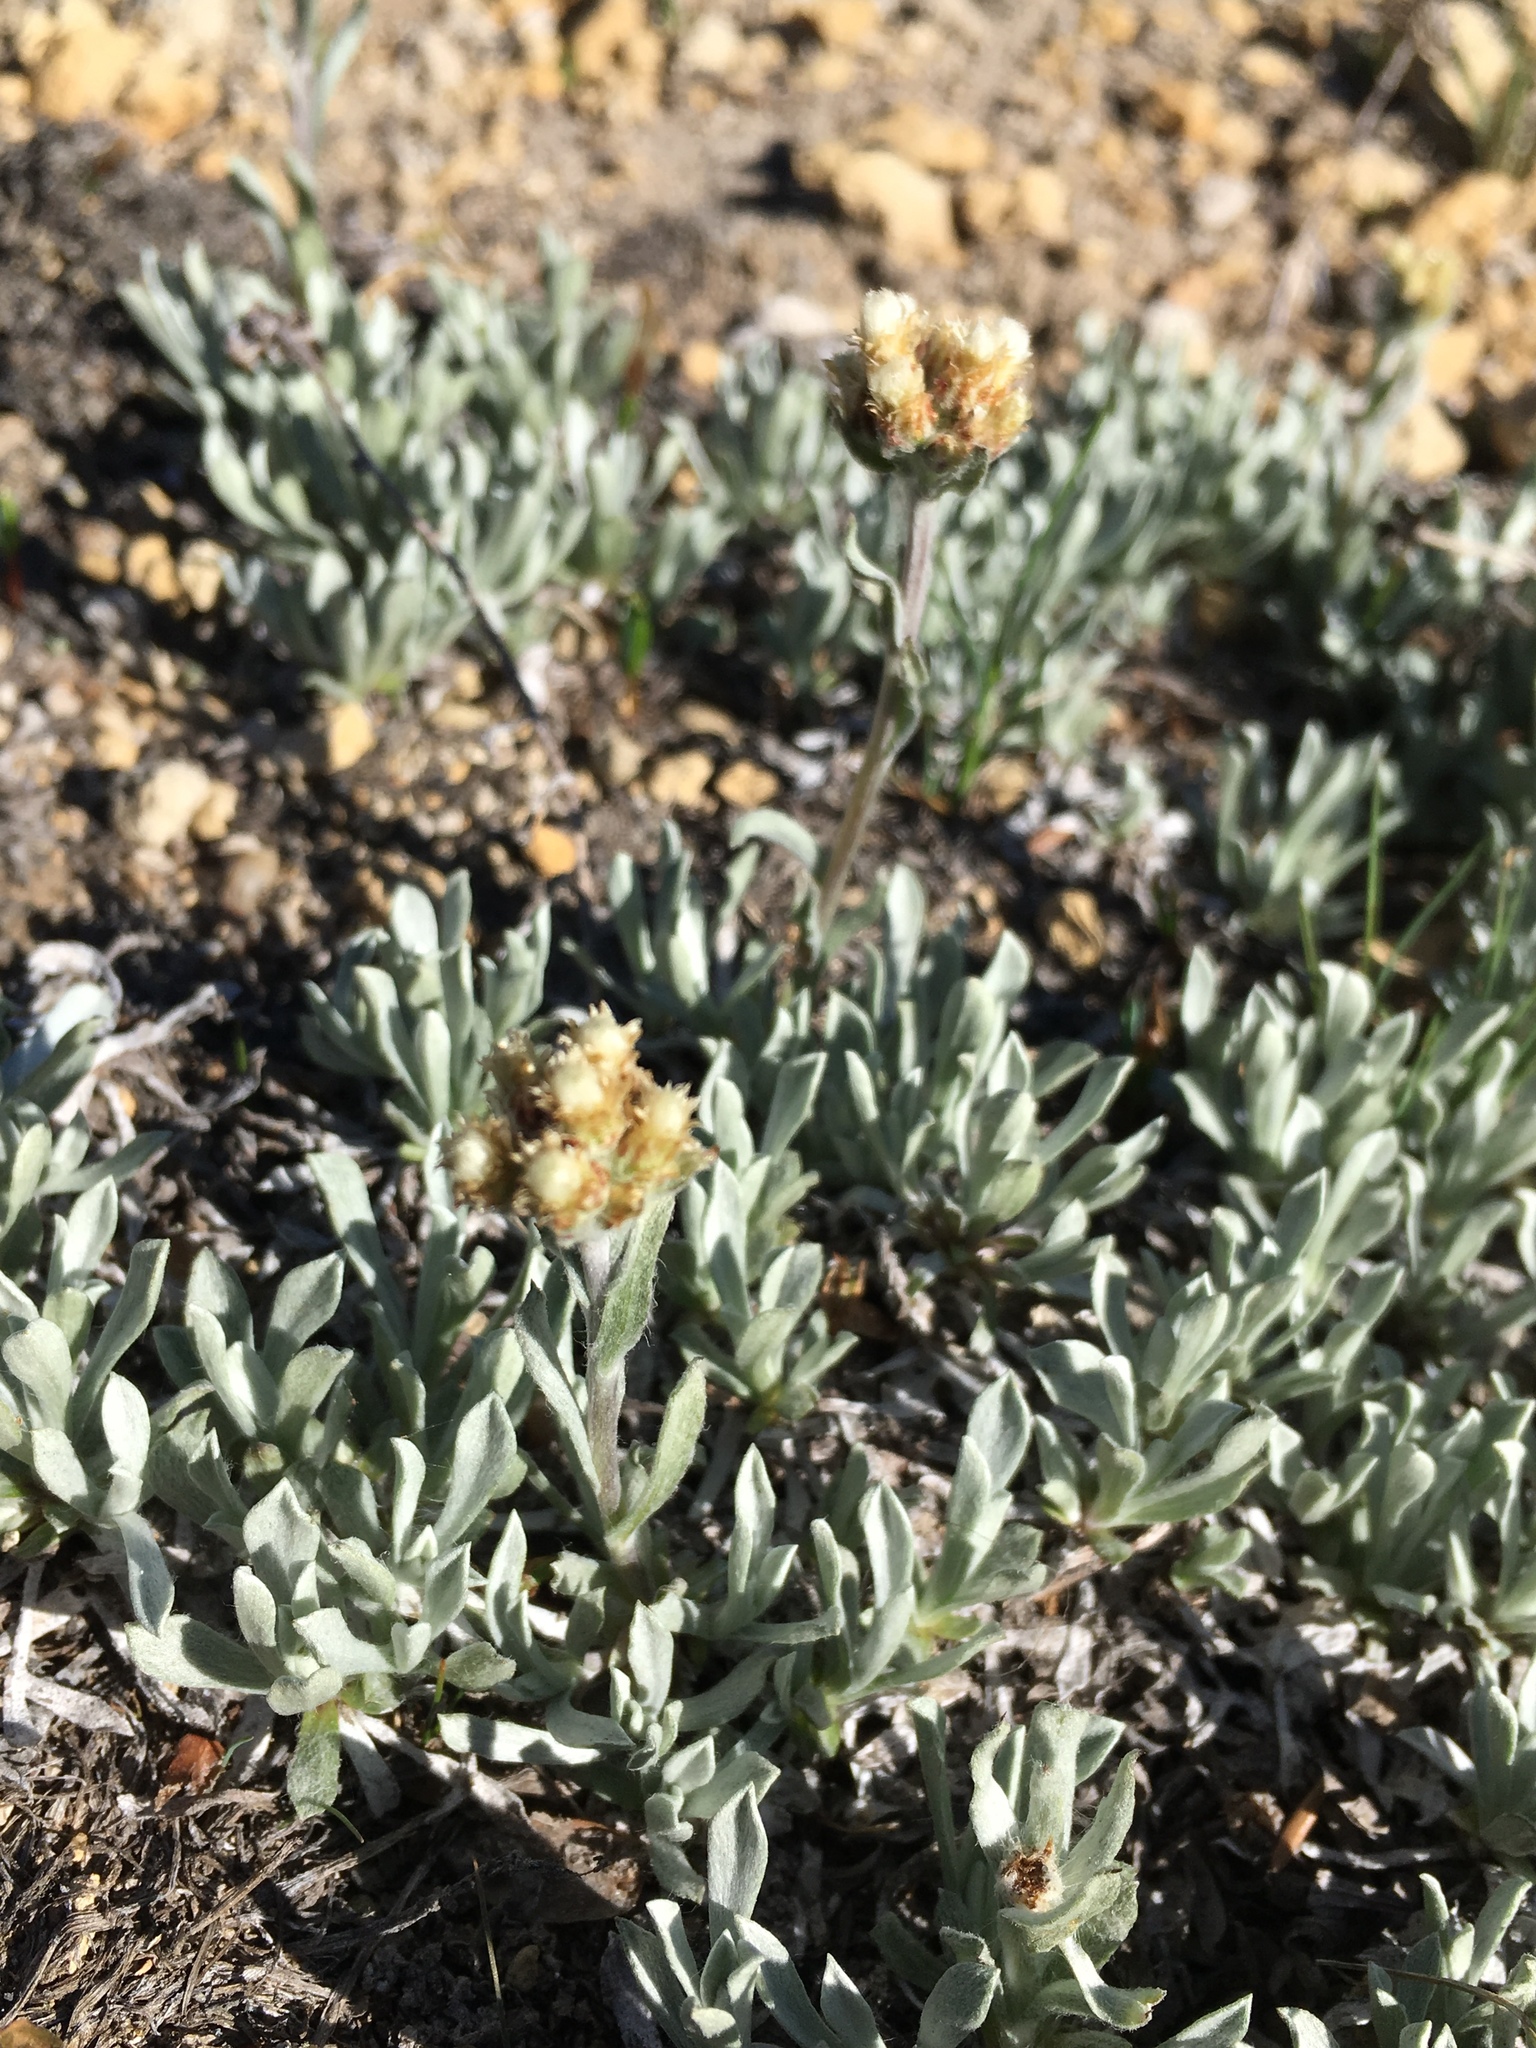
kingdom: Plantae
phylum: Tracheophyta
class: Magnoliopsida
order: Asterales
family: Asteraceae
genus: Antennaria
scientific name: Antennaria umbrinella
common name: Brown pussytoes
